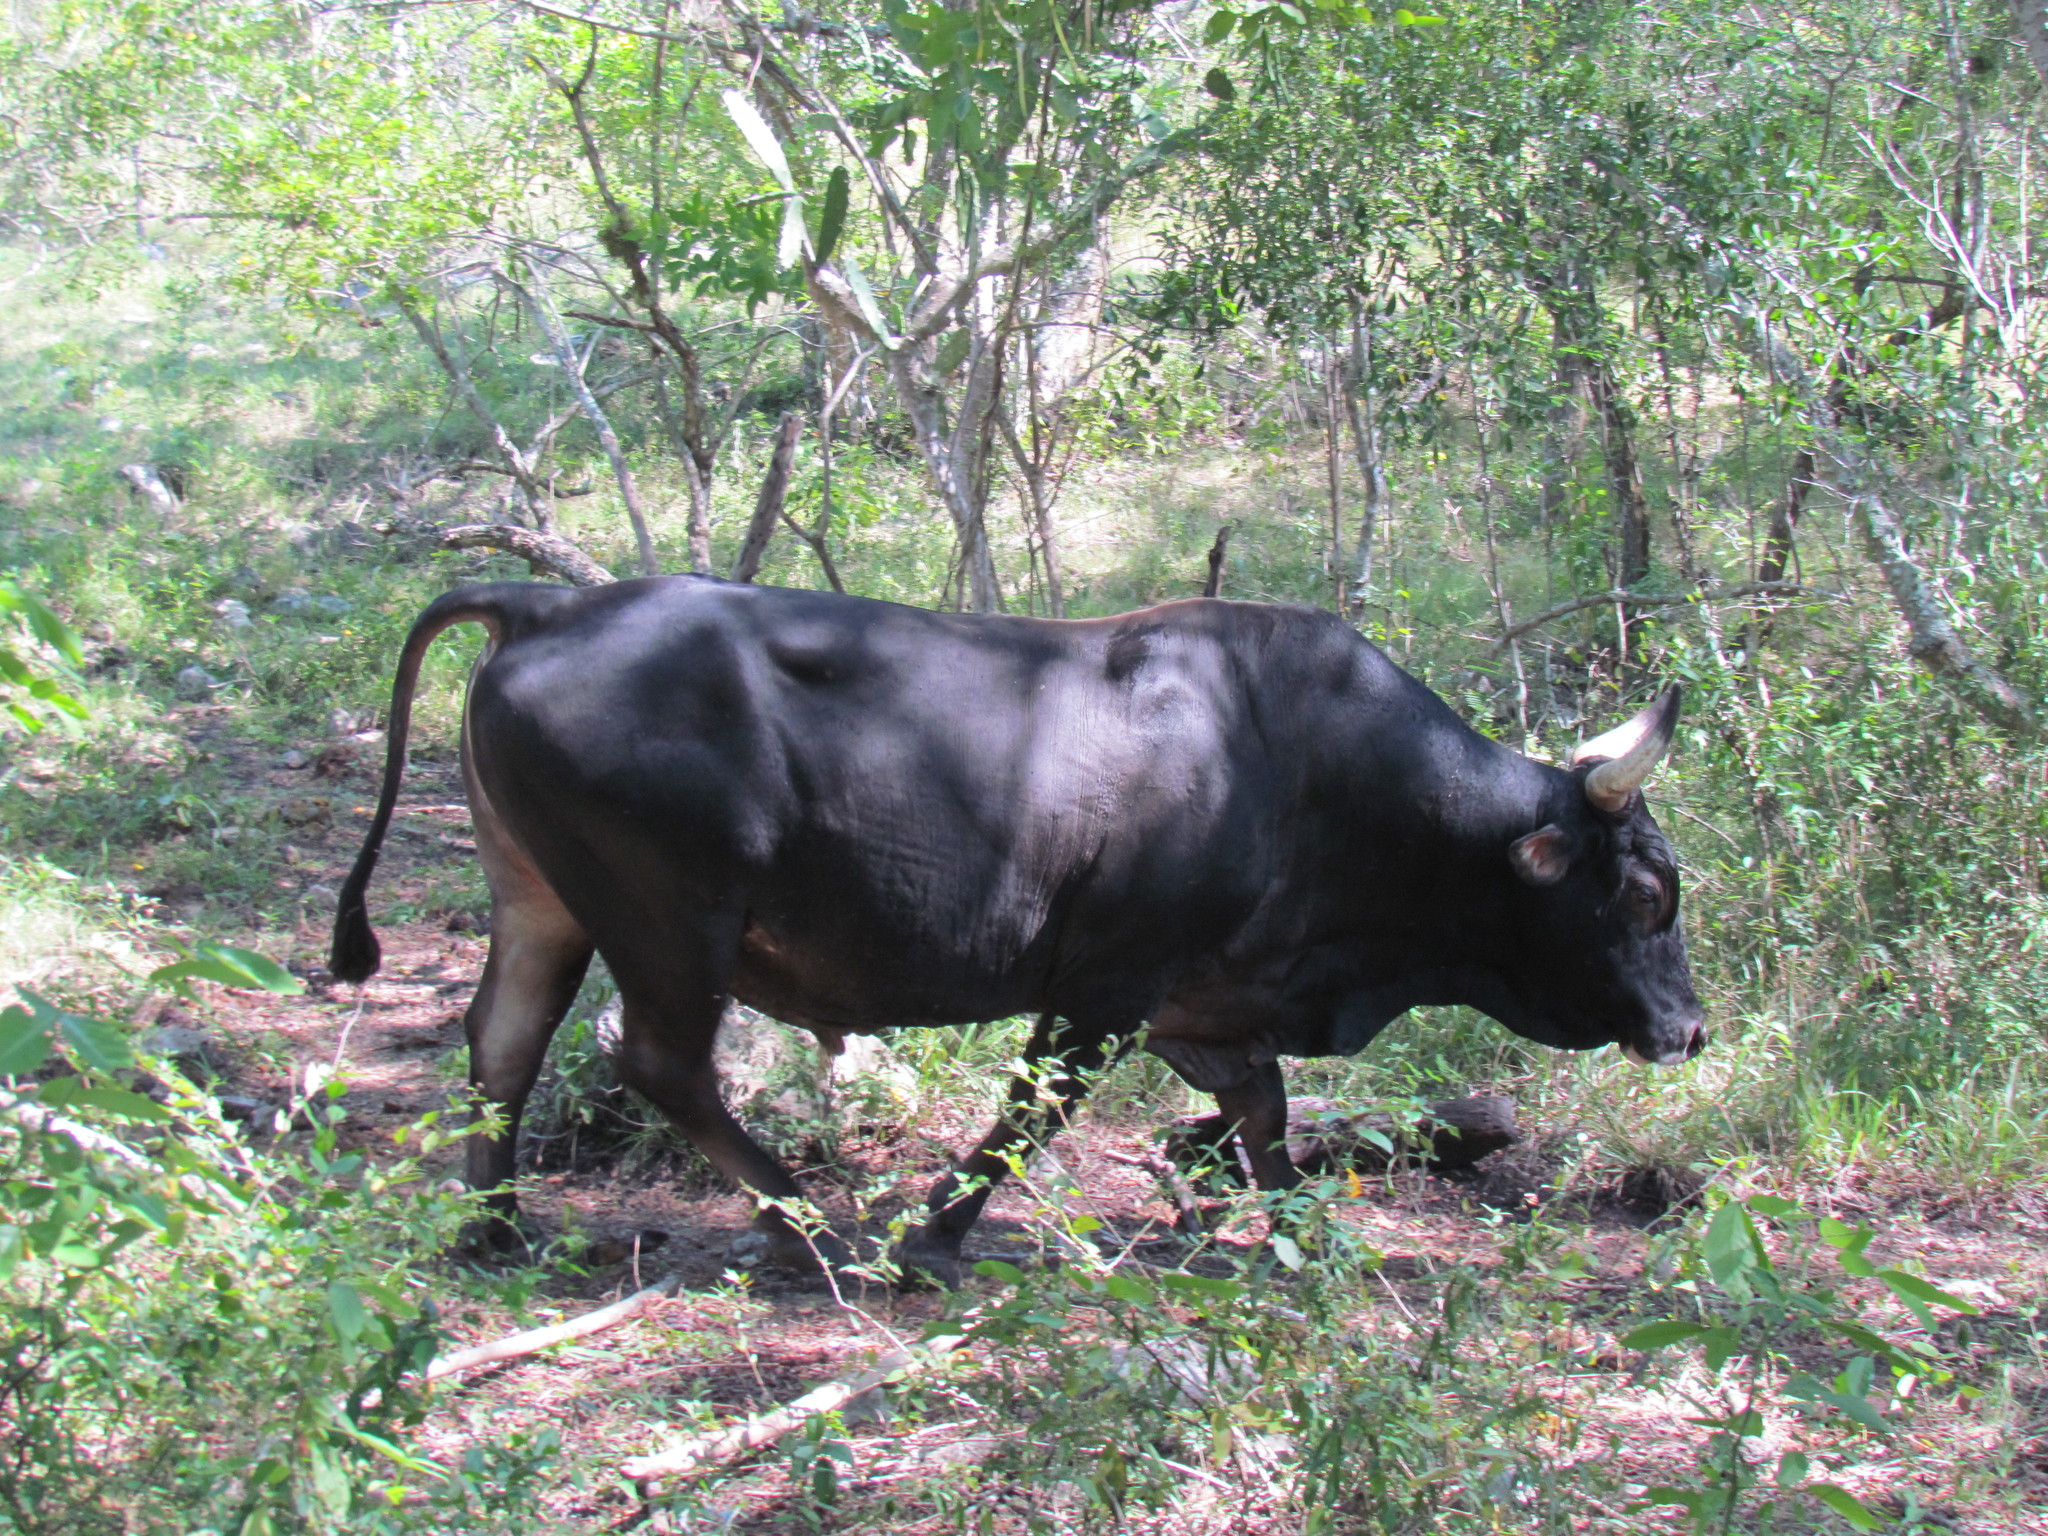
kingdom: Animalia
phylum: Chordata
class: Mammalia
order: Artiodactyla
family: Bovidae
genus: Bos
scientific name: Bos taurus
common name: Domesticated cattle
